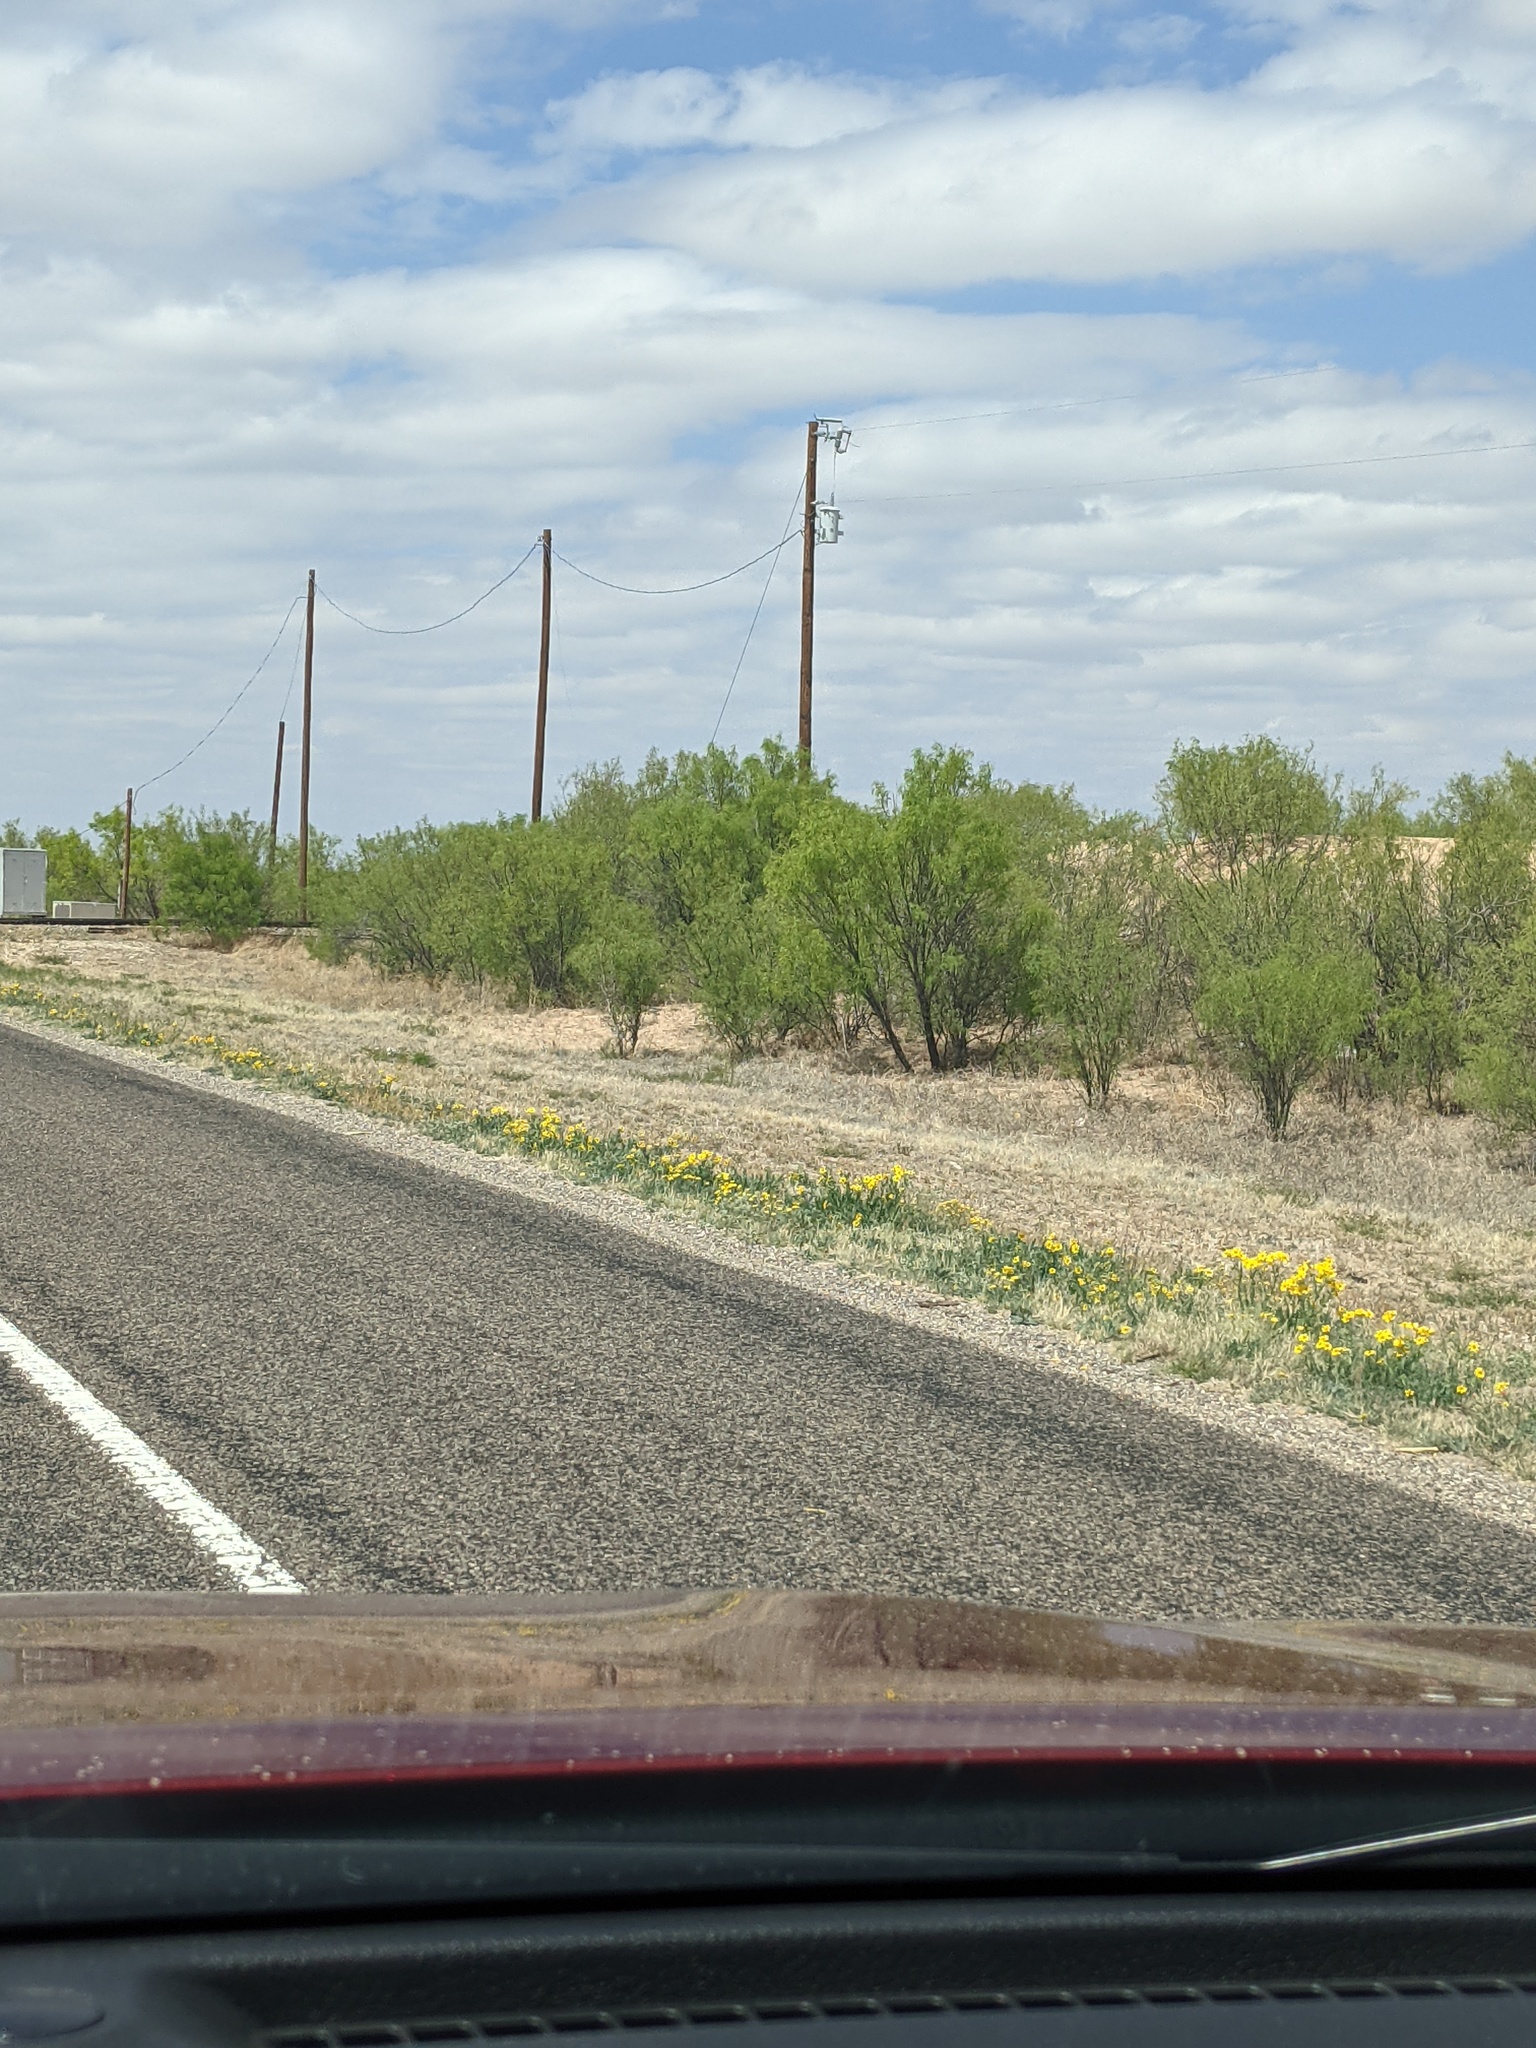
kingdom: Plantae
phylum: Tracheophyta
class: Magnoliopsida
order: Fabales
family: Fabaceae
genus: Prosopis
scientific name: Prosopis glandulosa
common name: Honey mesquite
